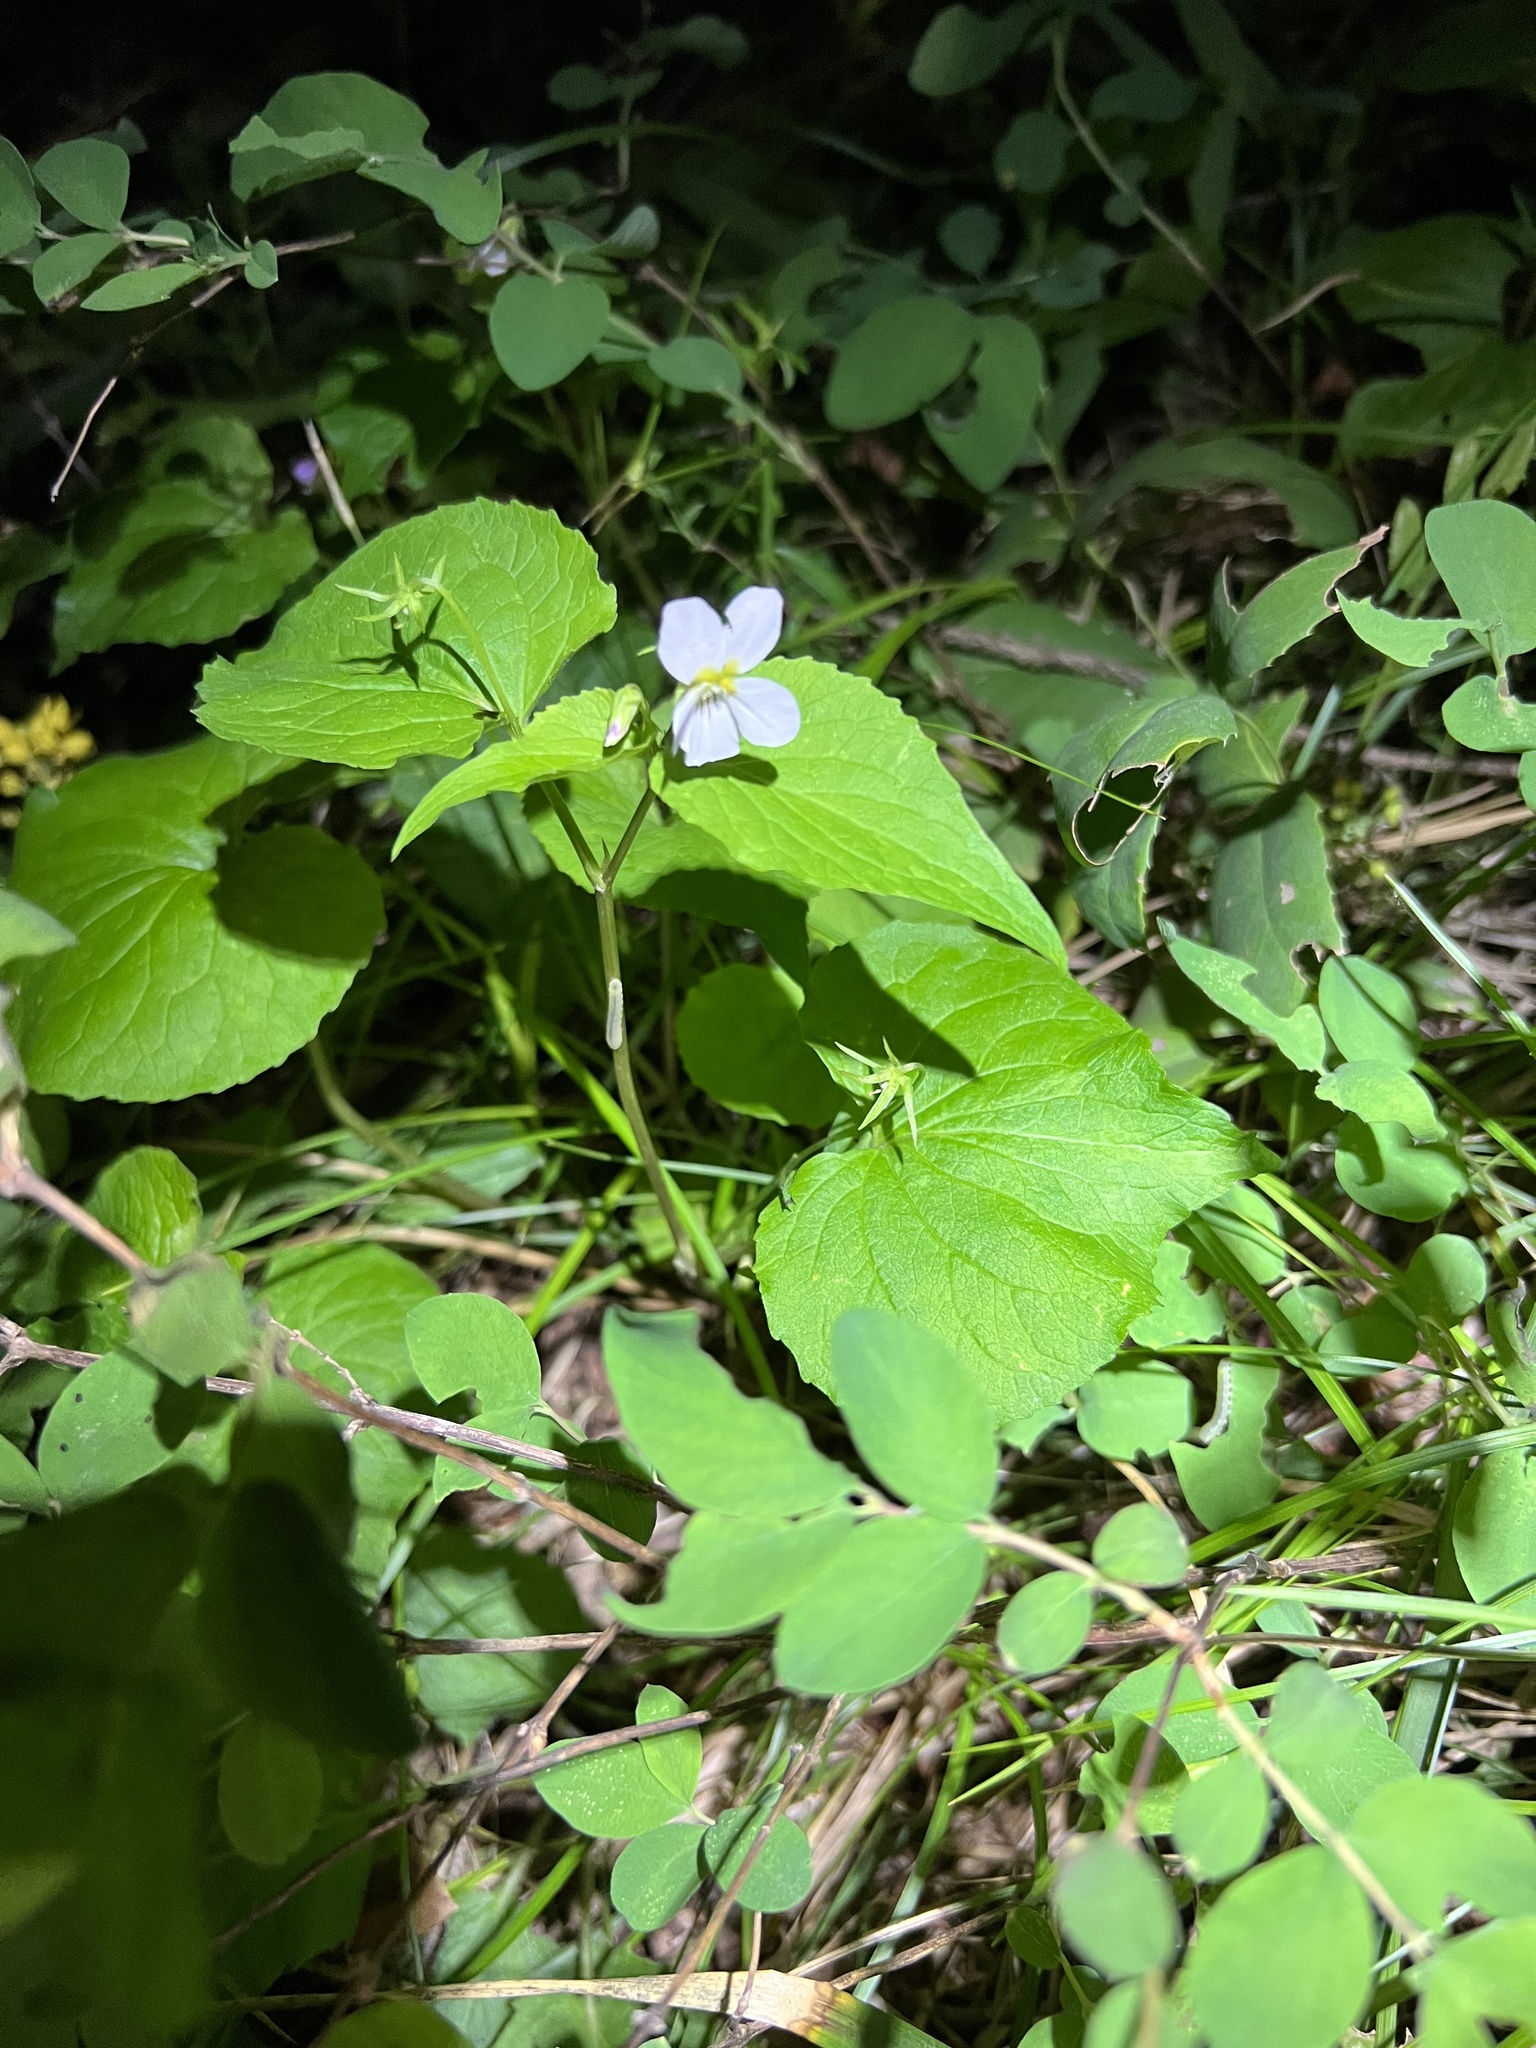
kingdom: Plantae
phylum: Tracheophyta
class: Magnoliopsida
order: Malpighiales
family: Violaceae
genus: Viola
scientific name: Viola canadensis
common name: Canada violet
